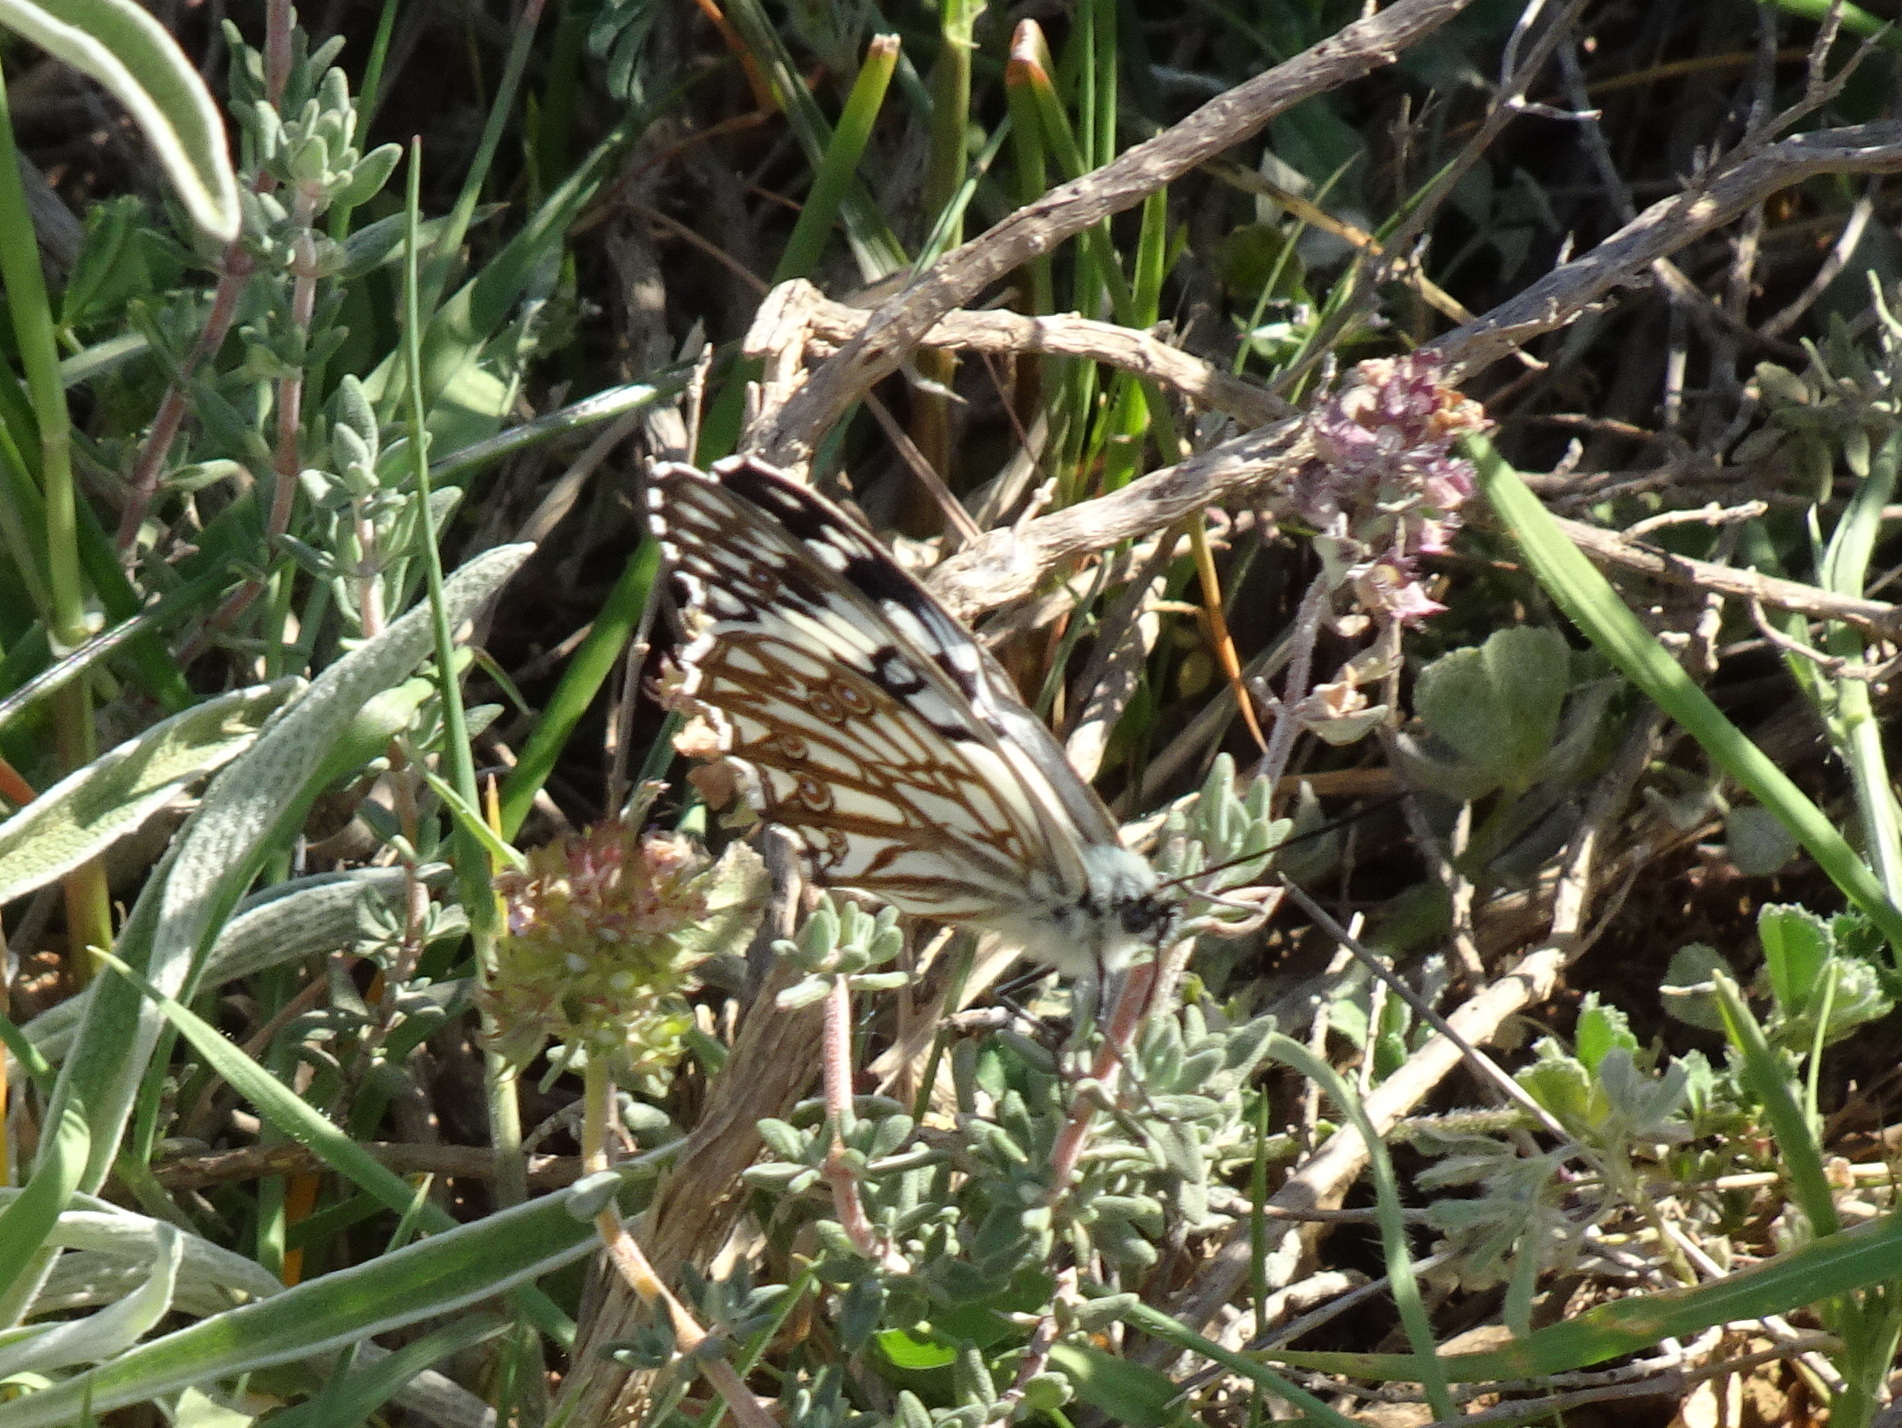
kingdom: Animalia
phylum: Arthropoda
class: Insecta
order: Lepidoptera
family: Nymphalidae
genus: Melanargia
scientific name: Melanargia occitanica
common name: Western marbled white
